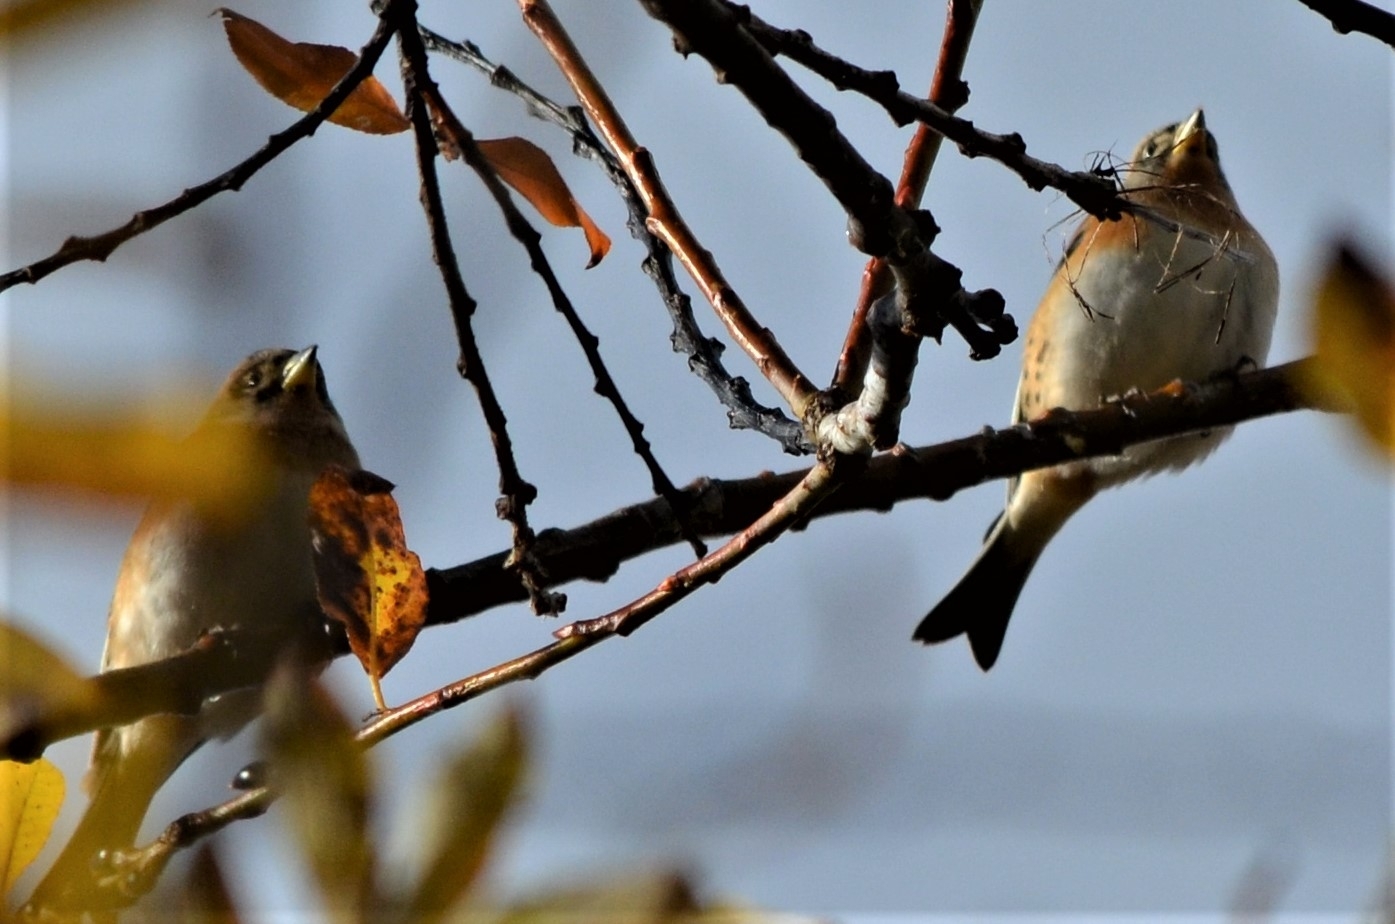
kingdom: Animalia
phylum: Chordata
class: Aves
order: Passeriformes
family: Fringillidae
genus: Fringilla
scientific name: Fringilla montifringilla
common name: Brambling
